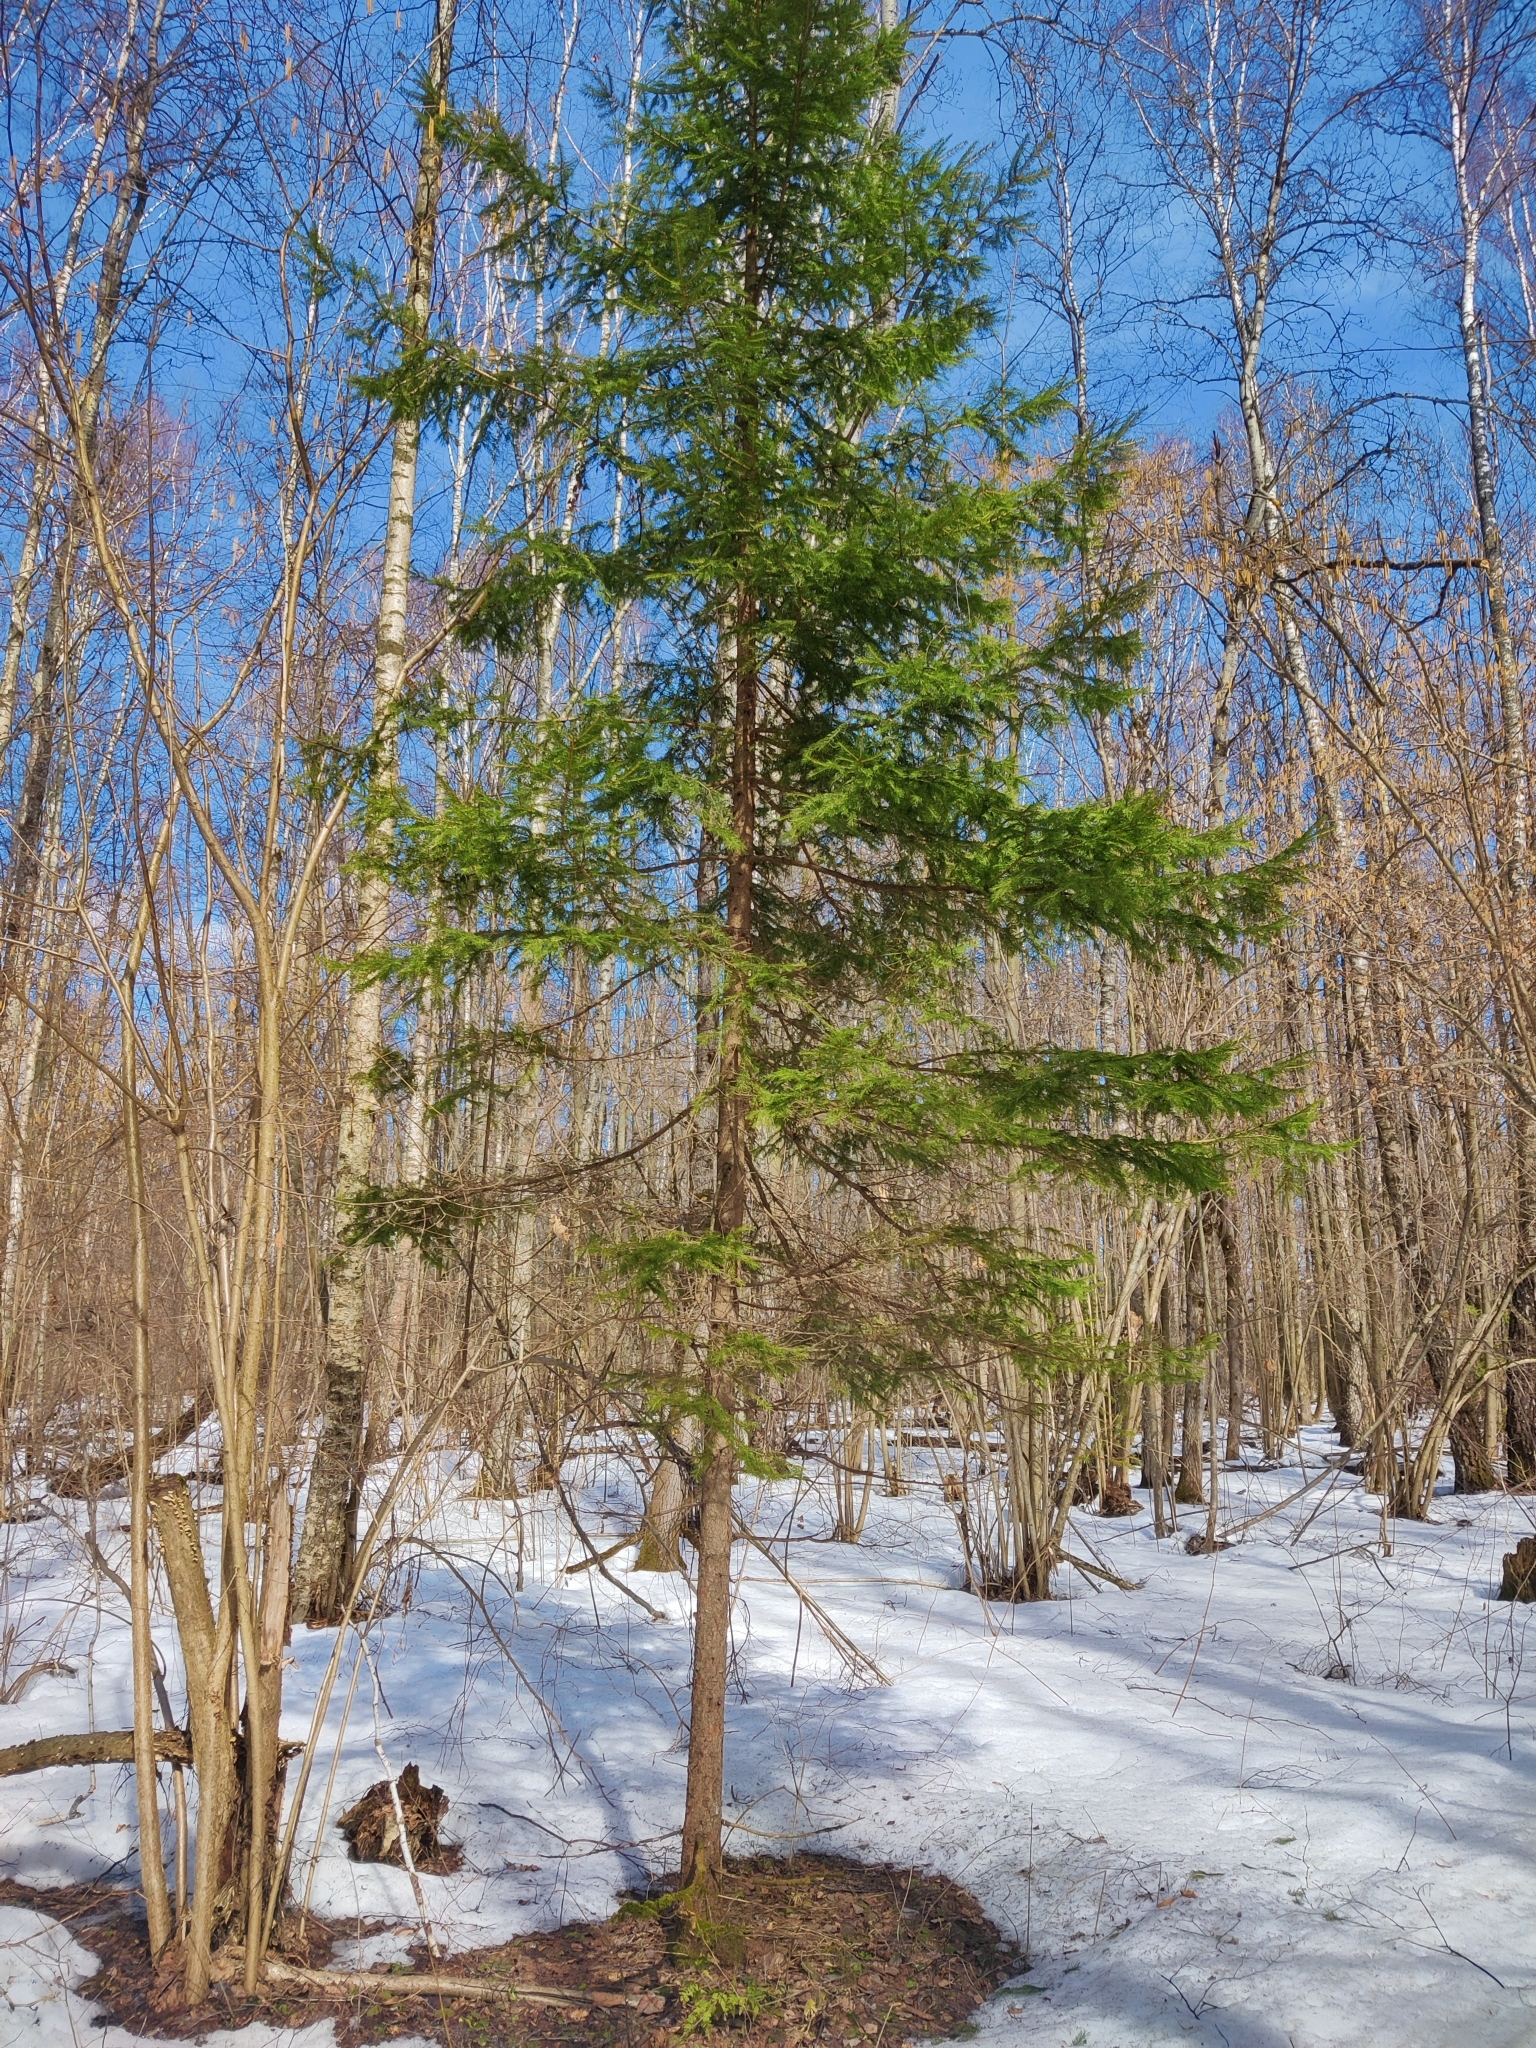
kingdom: Plantae
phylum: Tracheophyta
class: Pinopsida
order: Pinales
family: Pinaceae
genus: Picea
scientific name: Picea abies
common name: Norway spruce
